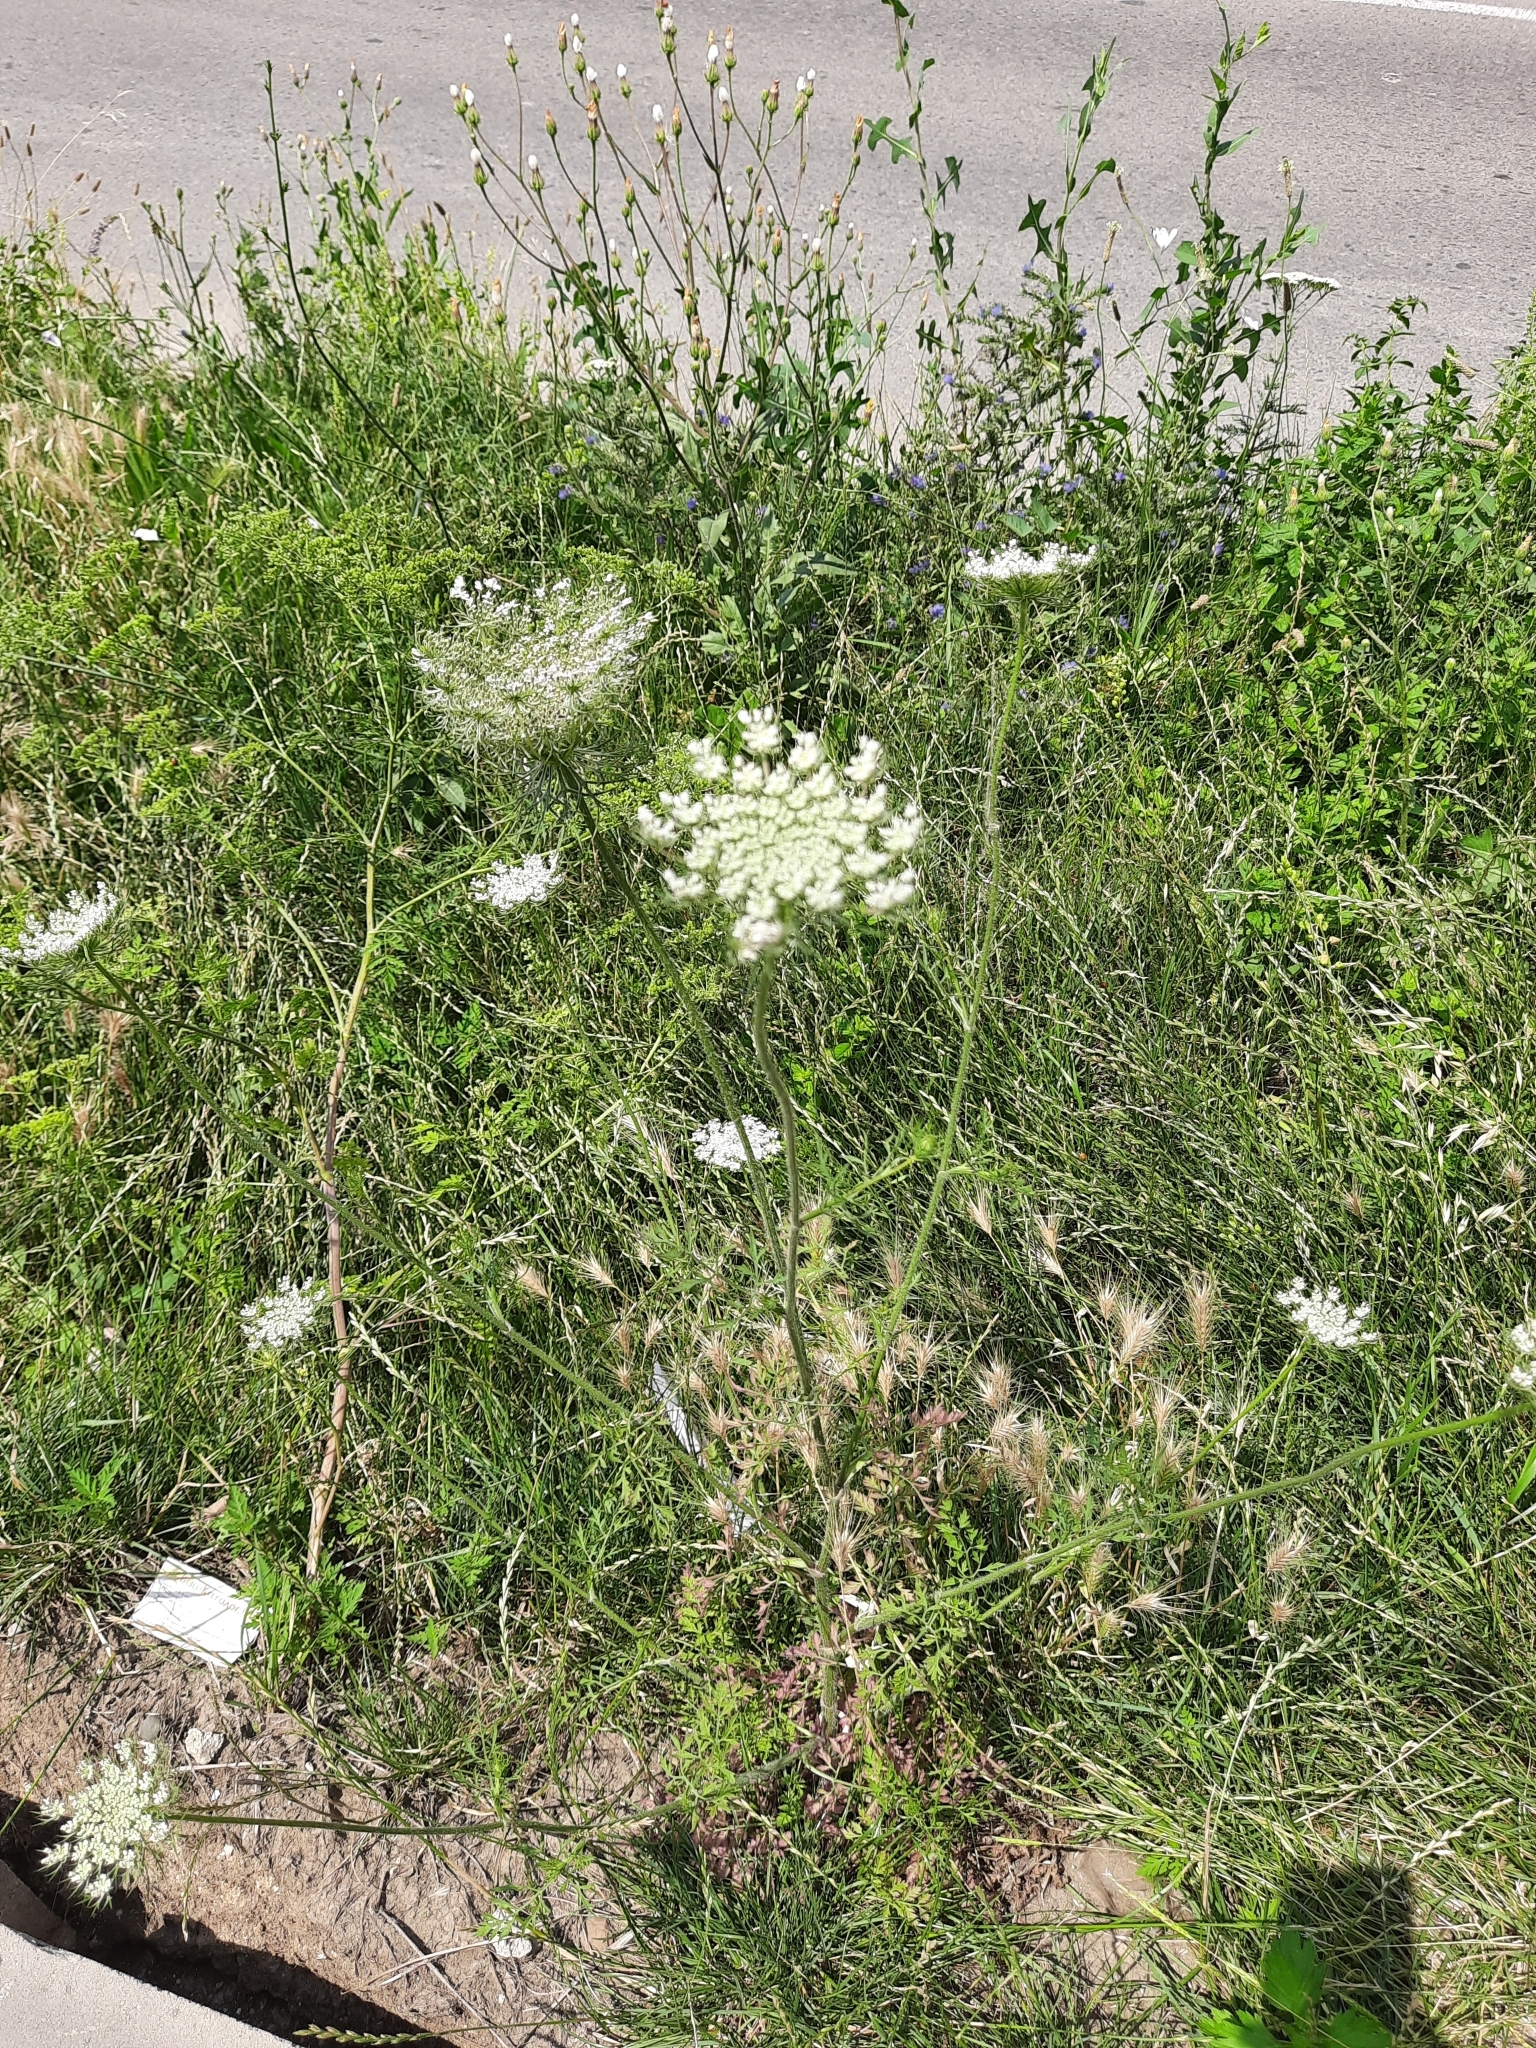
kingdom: Plantae
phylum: Tracheophyta
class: Magnoliopsida
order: Apiales
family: Apiaceae
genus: Daucus
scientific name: Daucus carota
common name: Wild carrot
